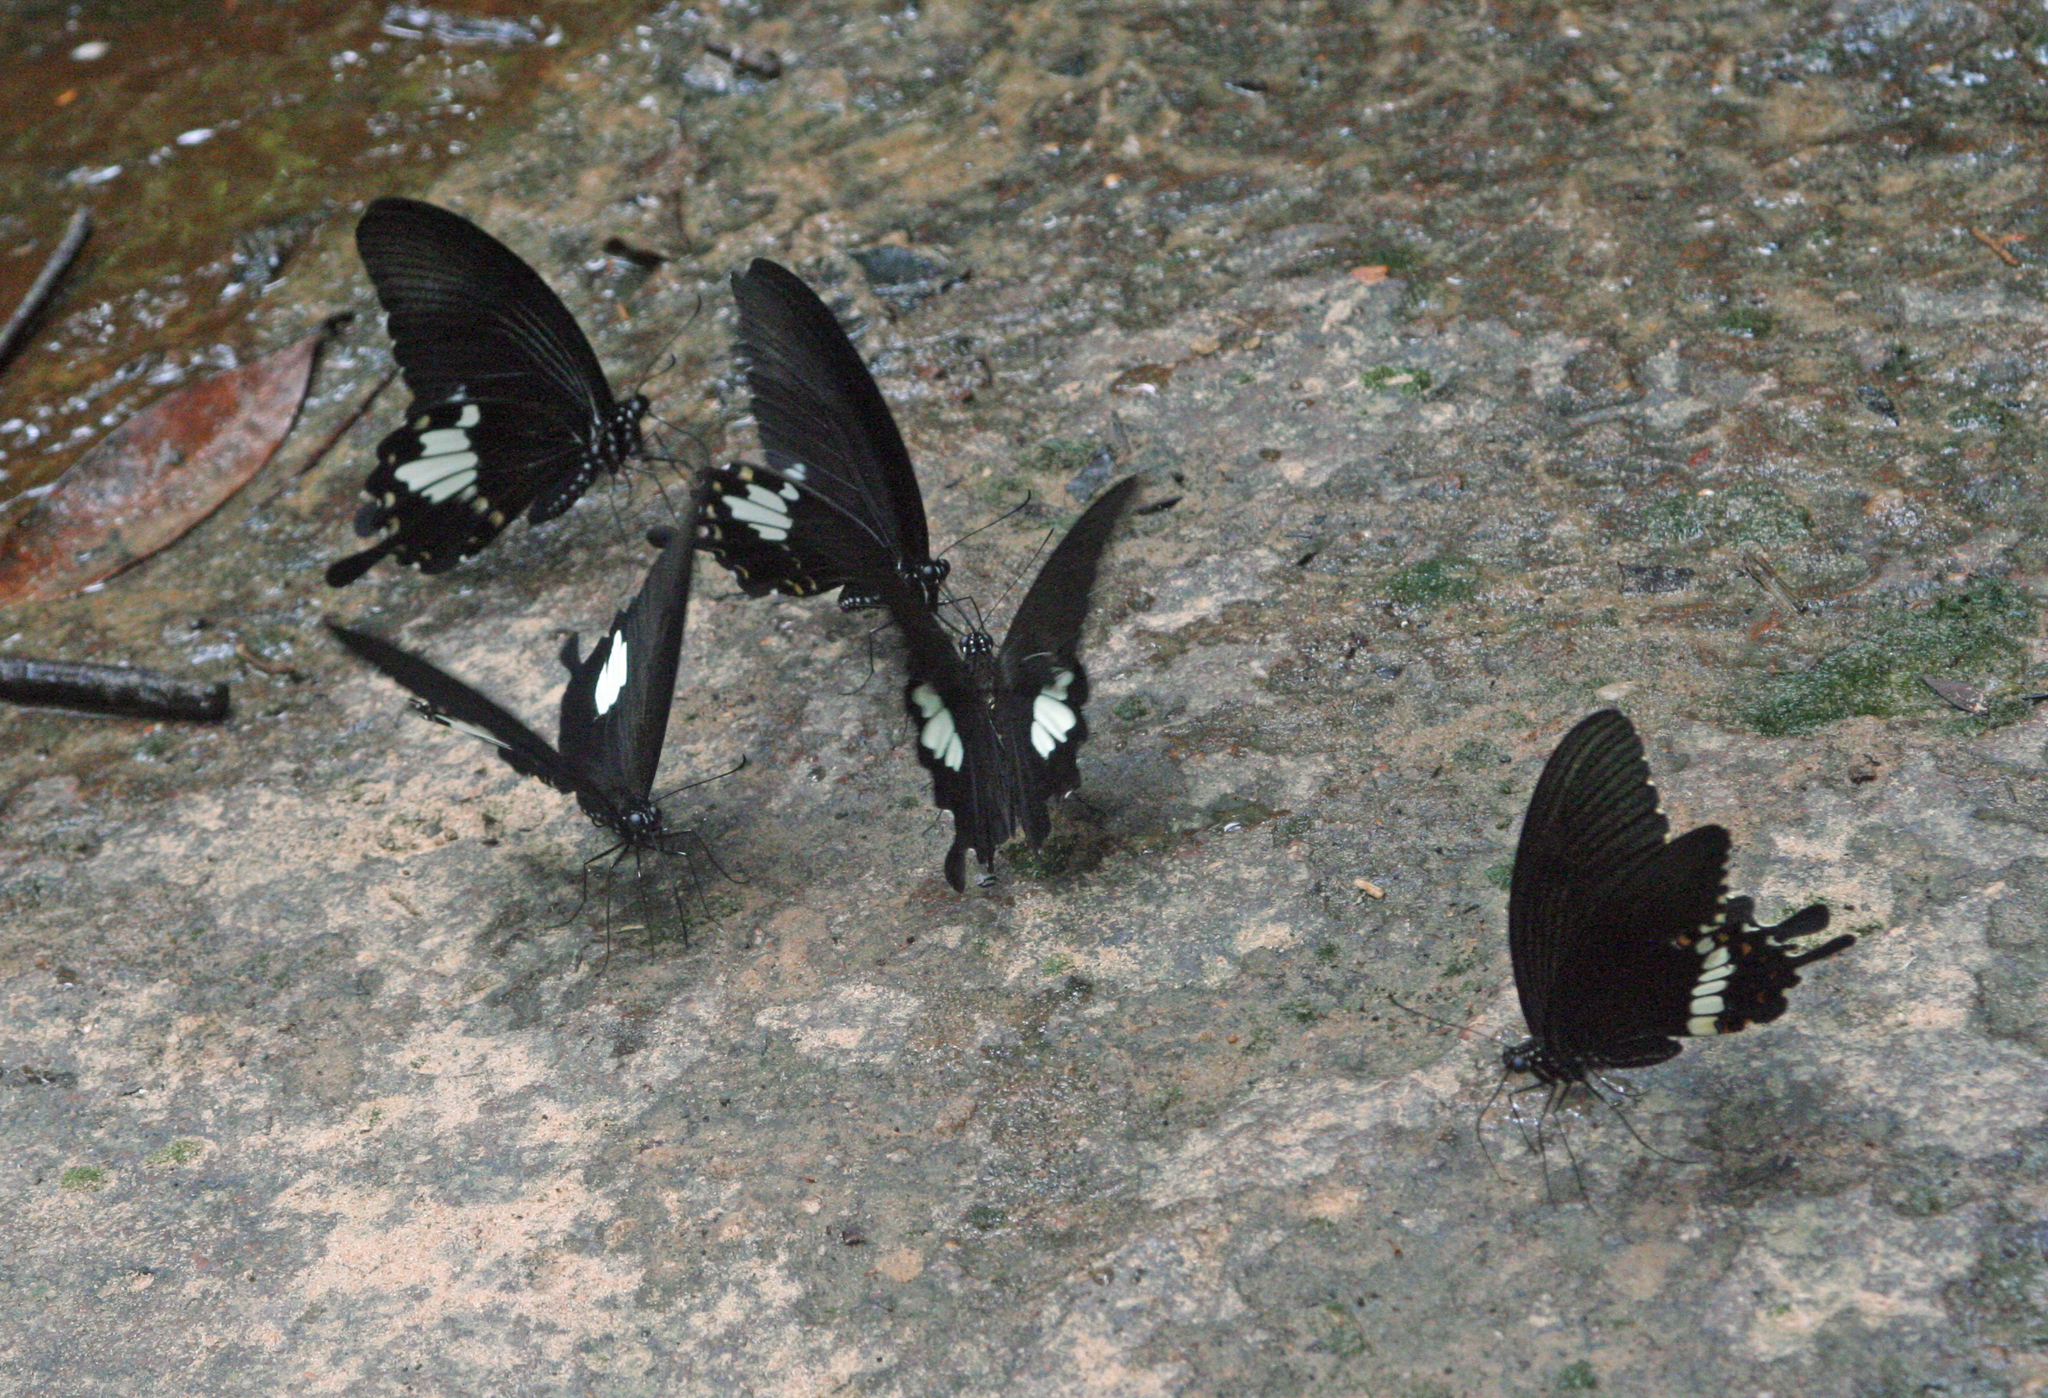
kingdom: Animalia
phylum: Arthropoda
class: Insecta
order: Lepidoptera
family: Papilionidae
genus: Papilio
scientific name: Papilio polytes
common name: Common mormon
